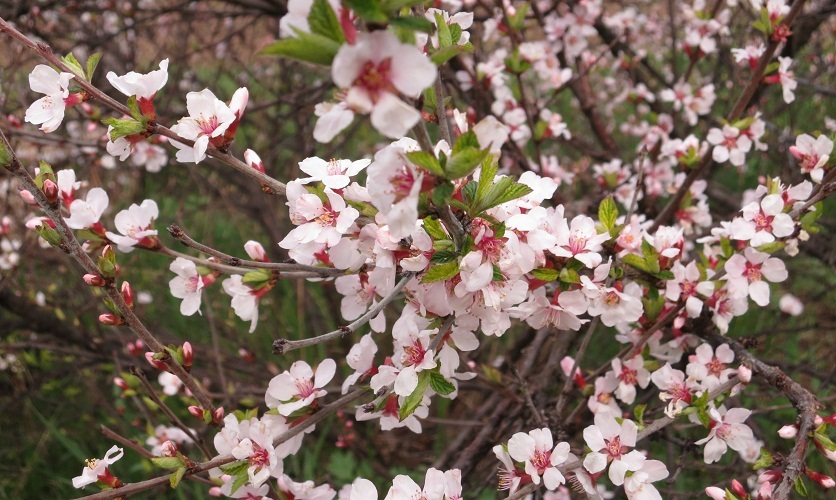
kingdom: Plantae
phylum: Tracheophyta
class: Magnoliopsida
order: Rosales
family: Rosaceae
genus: Prunus
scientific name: Prunus tomentosa
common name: Nanking cherry
